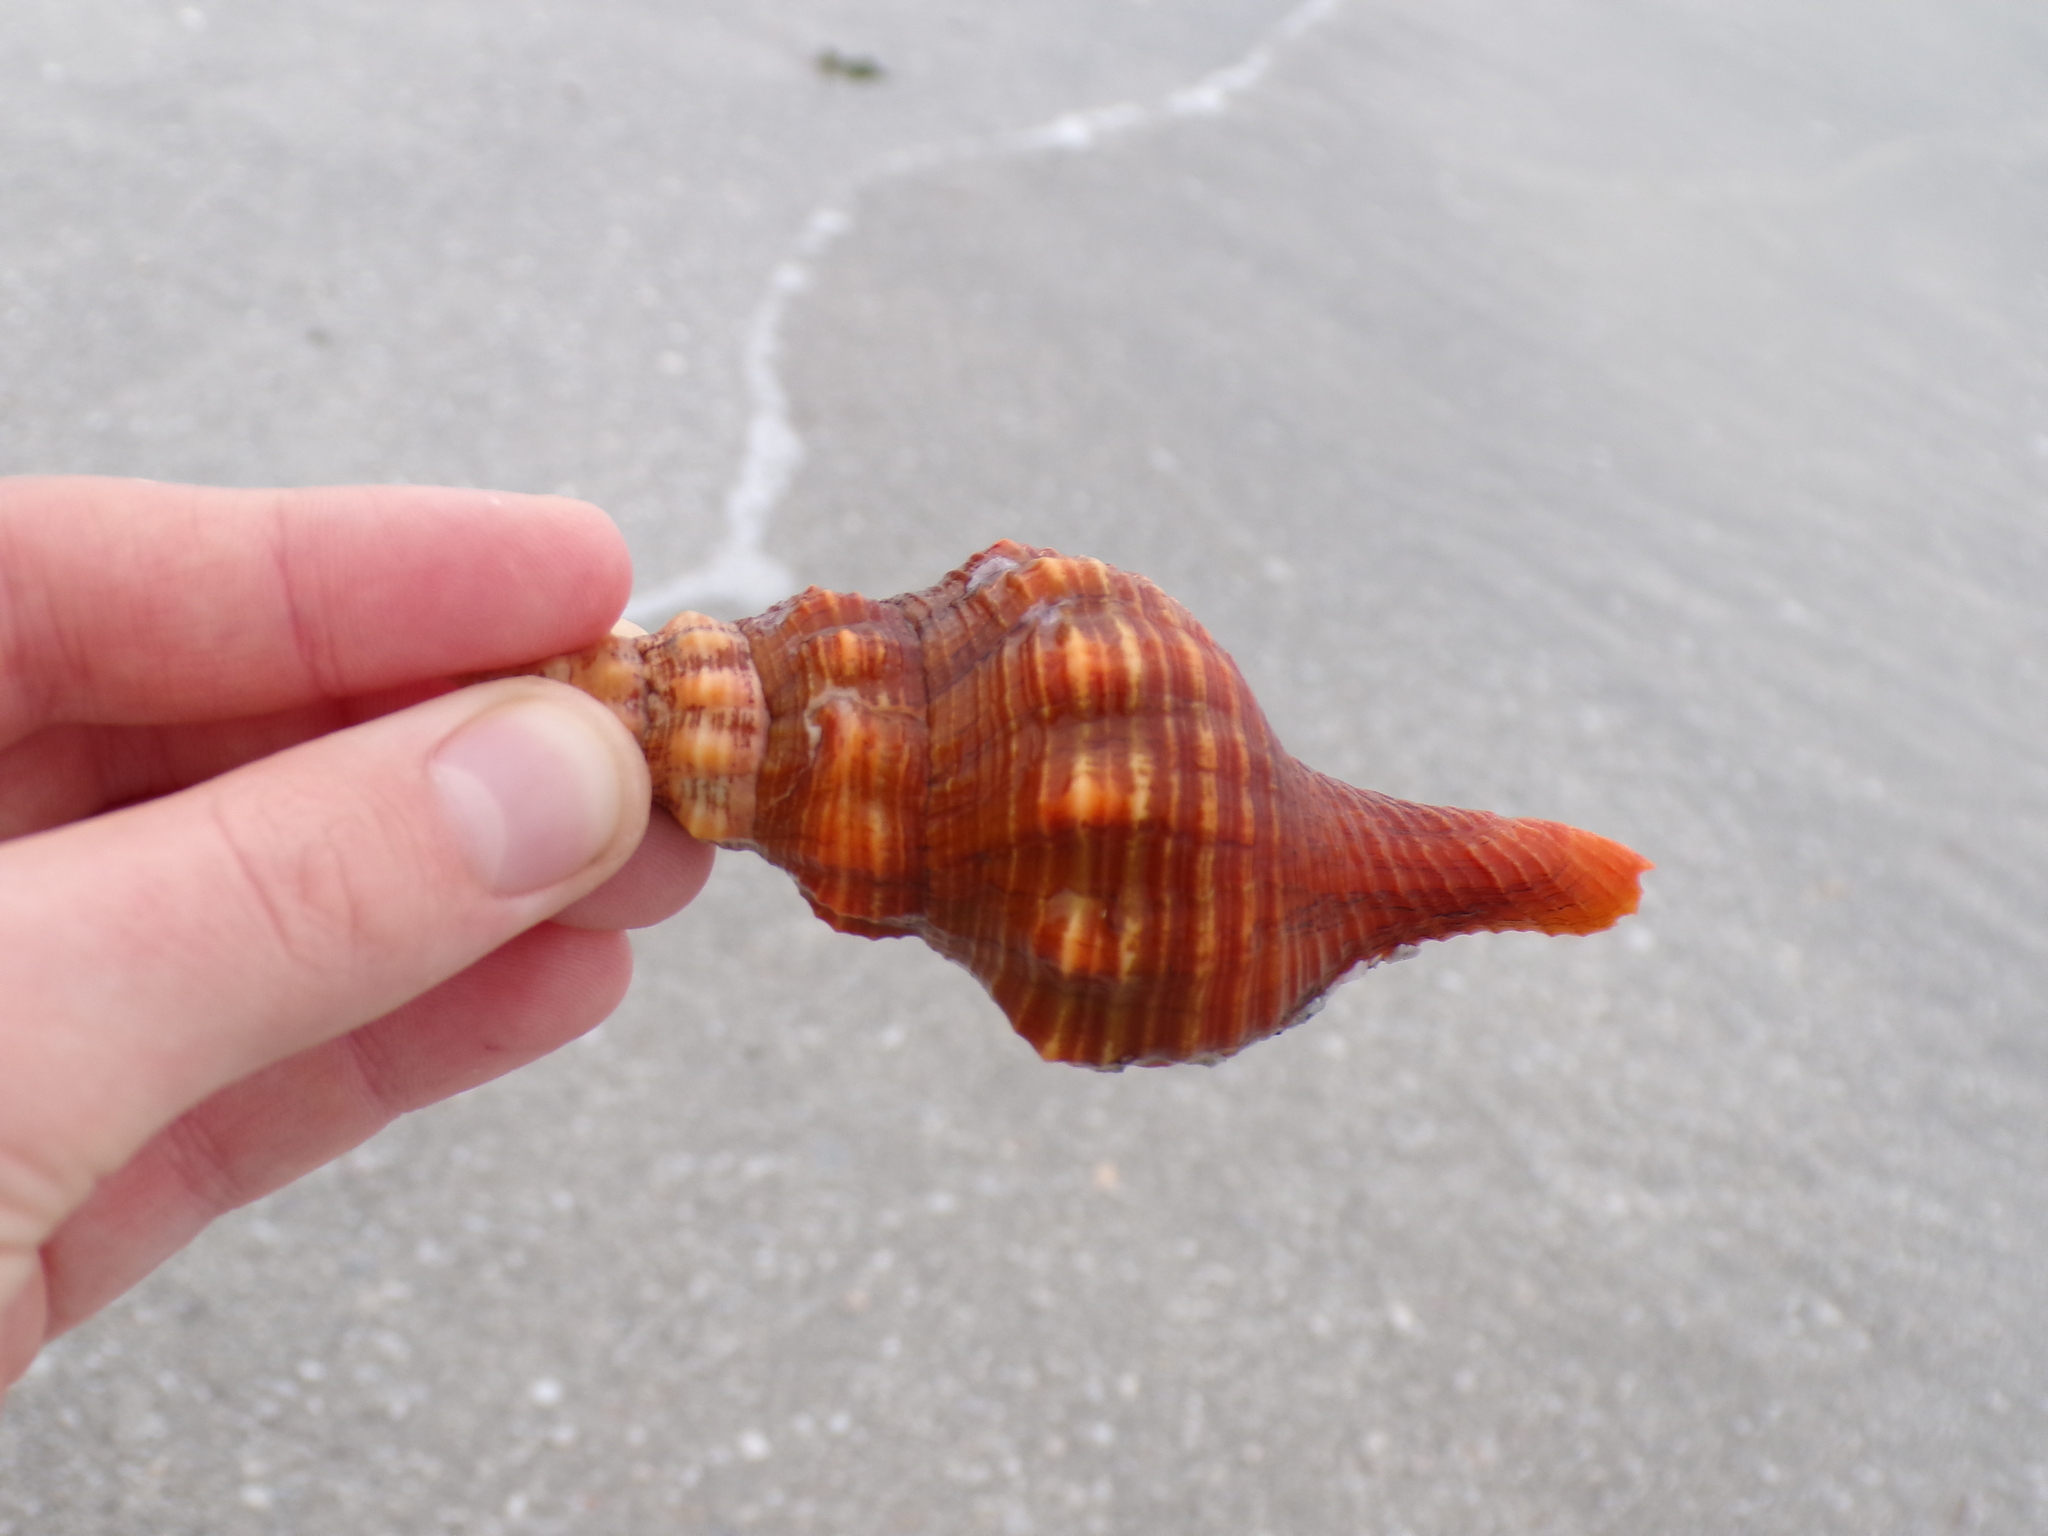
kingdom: Animalia
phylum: Mollusca
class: Gastropoda
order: Neogastropoda
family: Fasciolariidae
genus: Triplofusus
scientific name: Triplofusus giganteus
